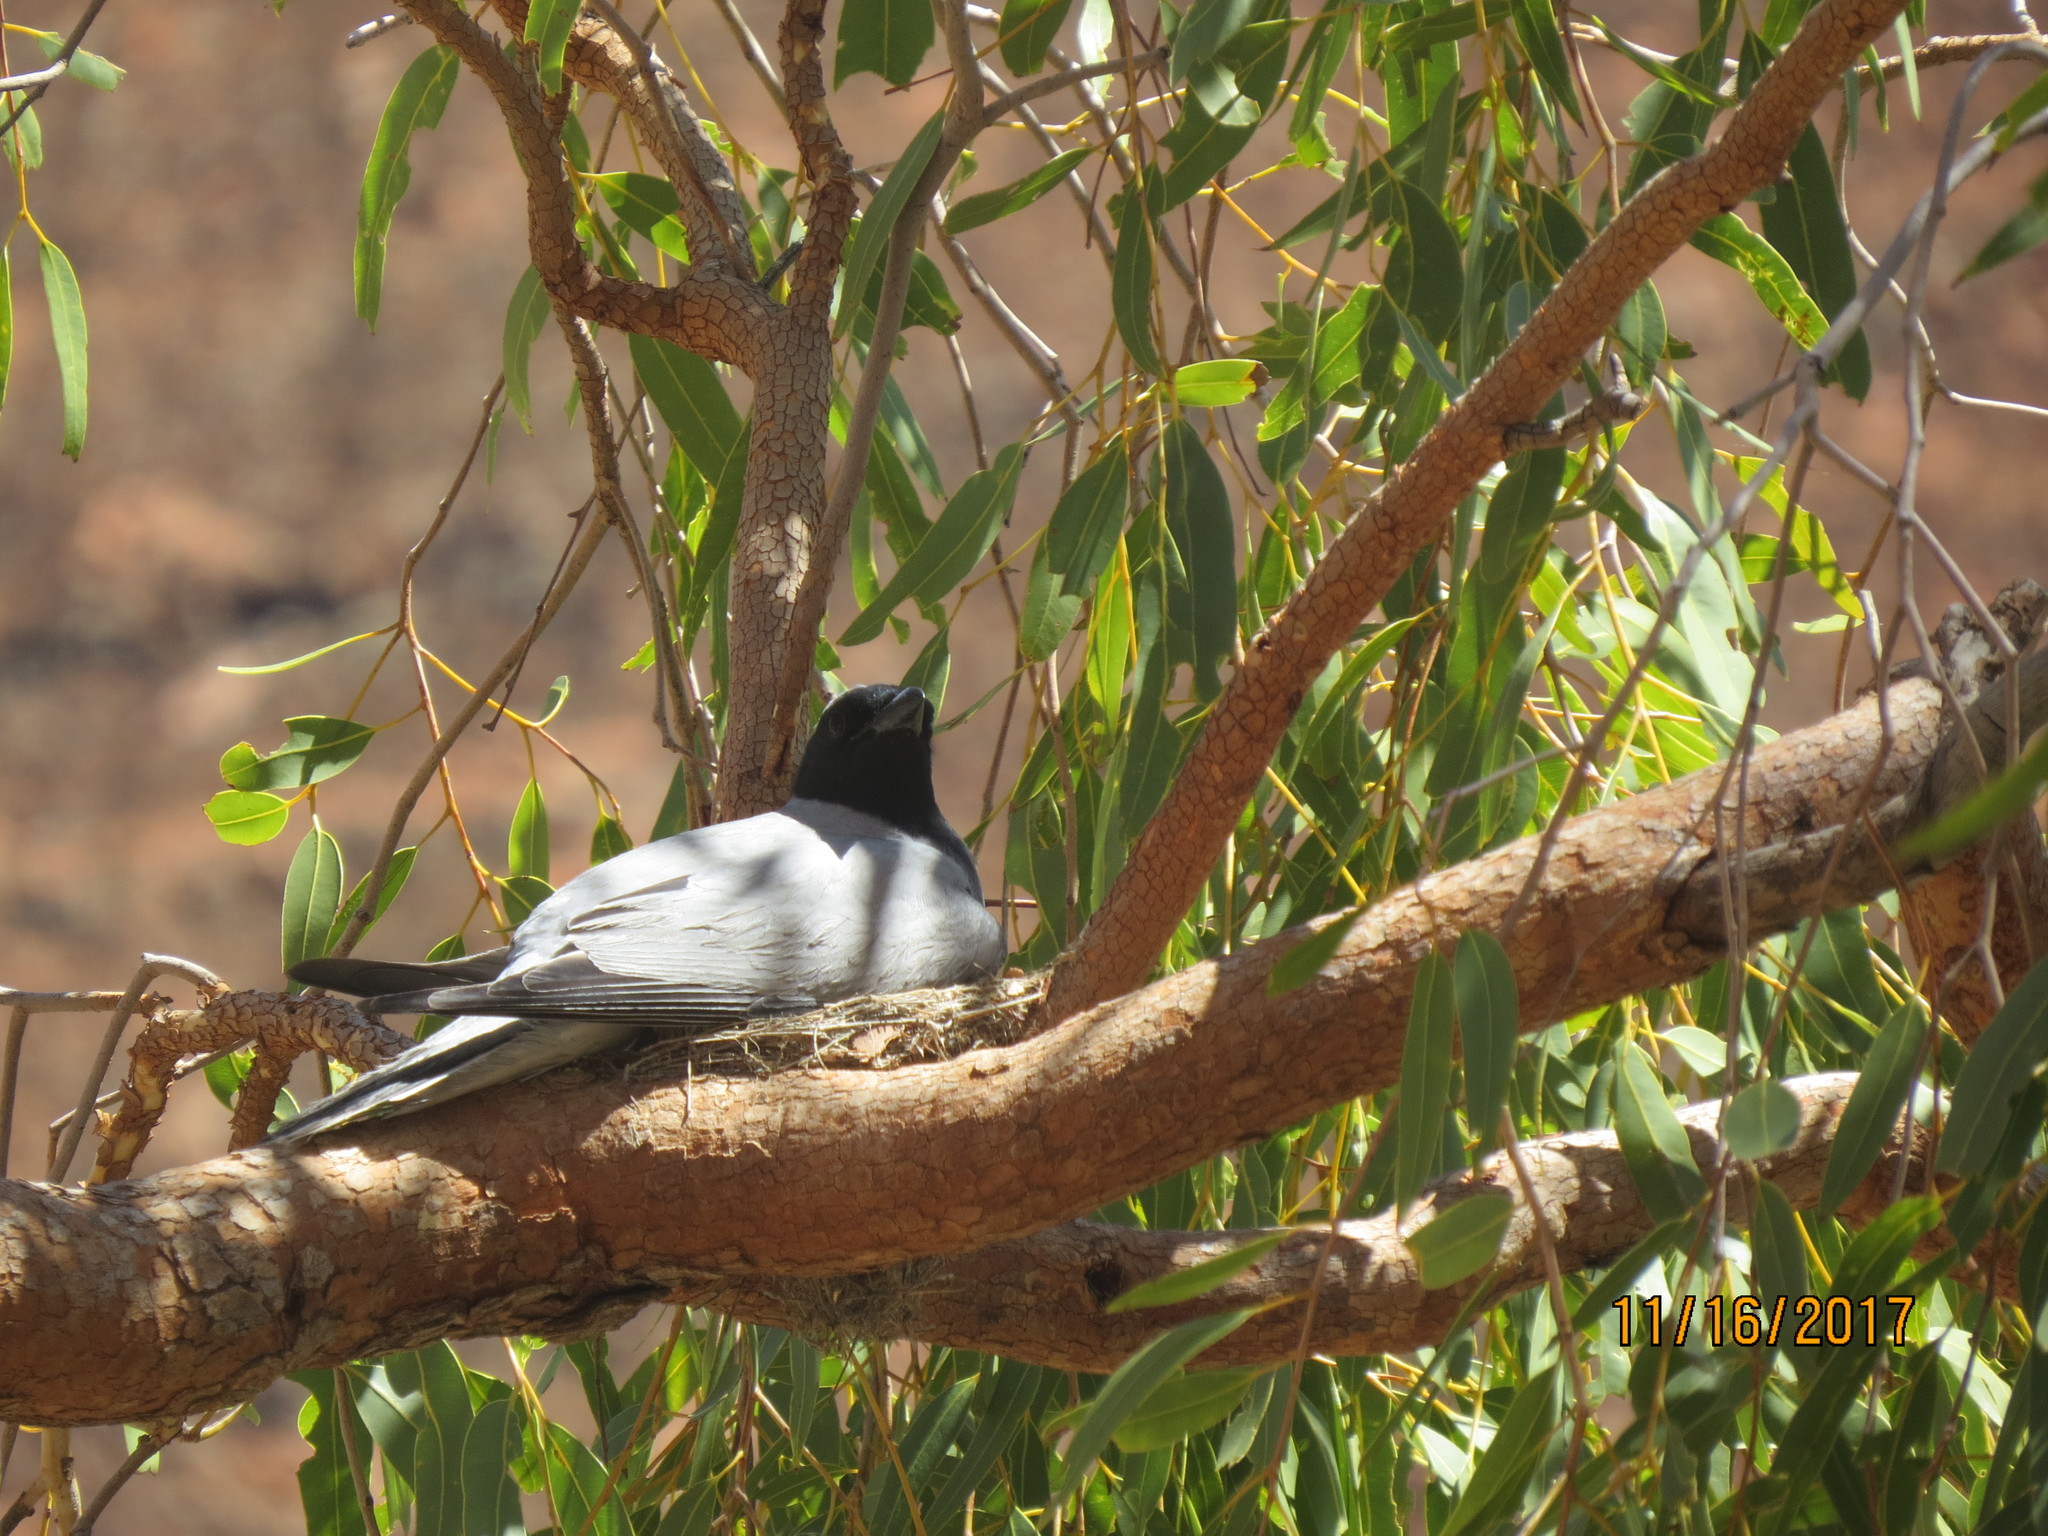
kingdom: Animalia
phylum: Chordata
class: Aves
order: Passeriformes
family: Campephagidae
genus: Coracina
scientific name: Coracina novaehollandiae
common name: Black-faced cuckooshrike
